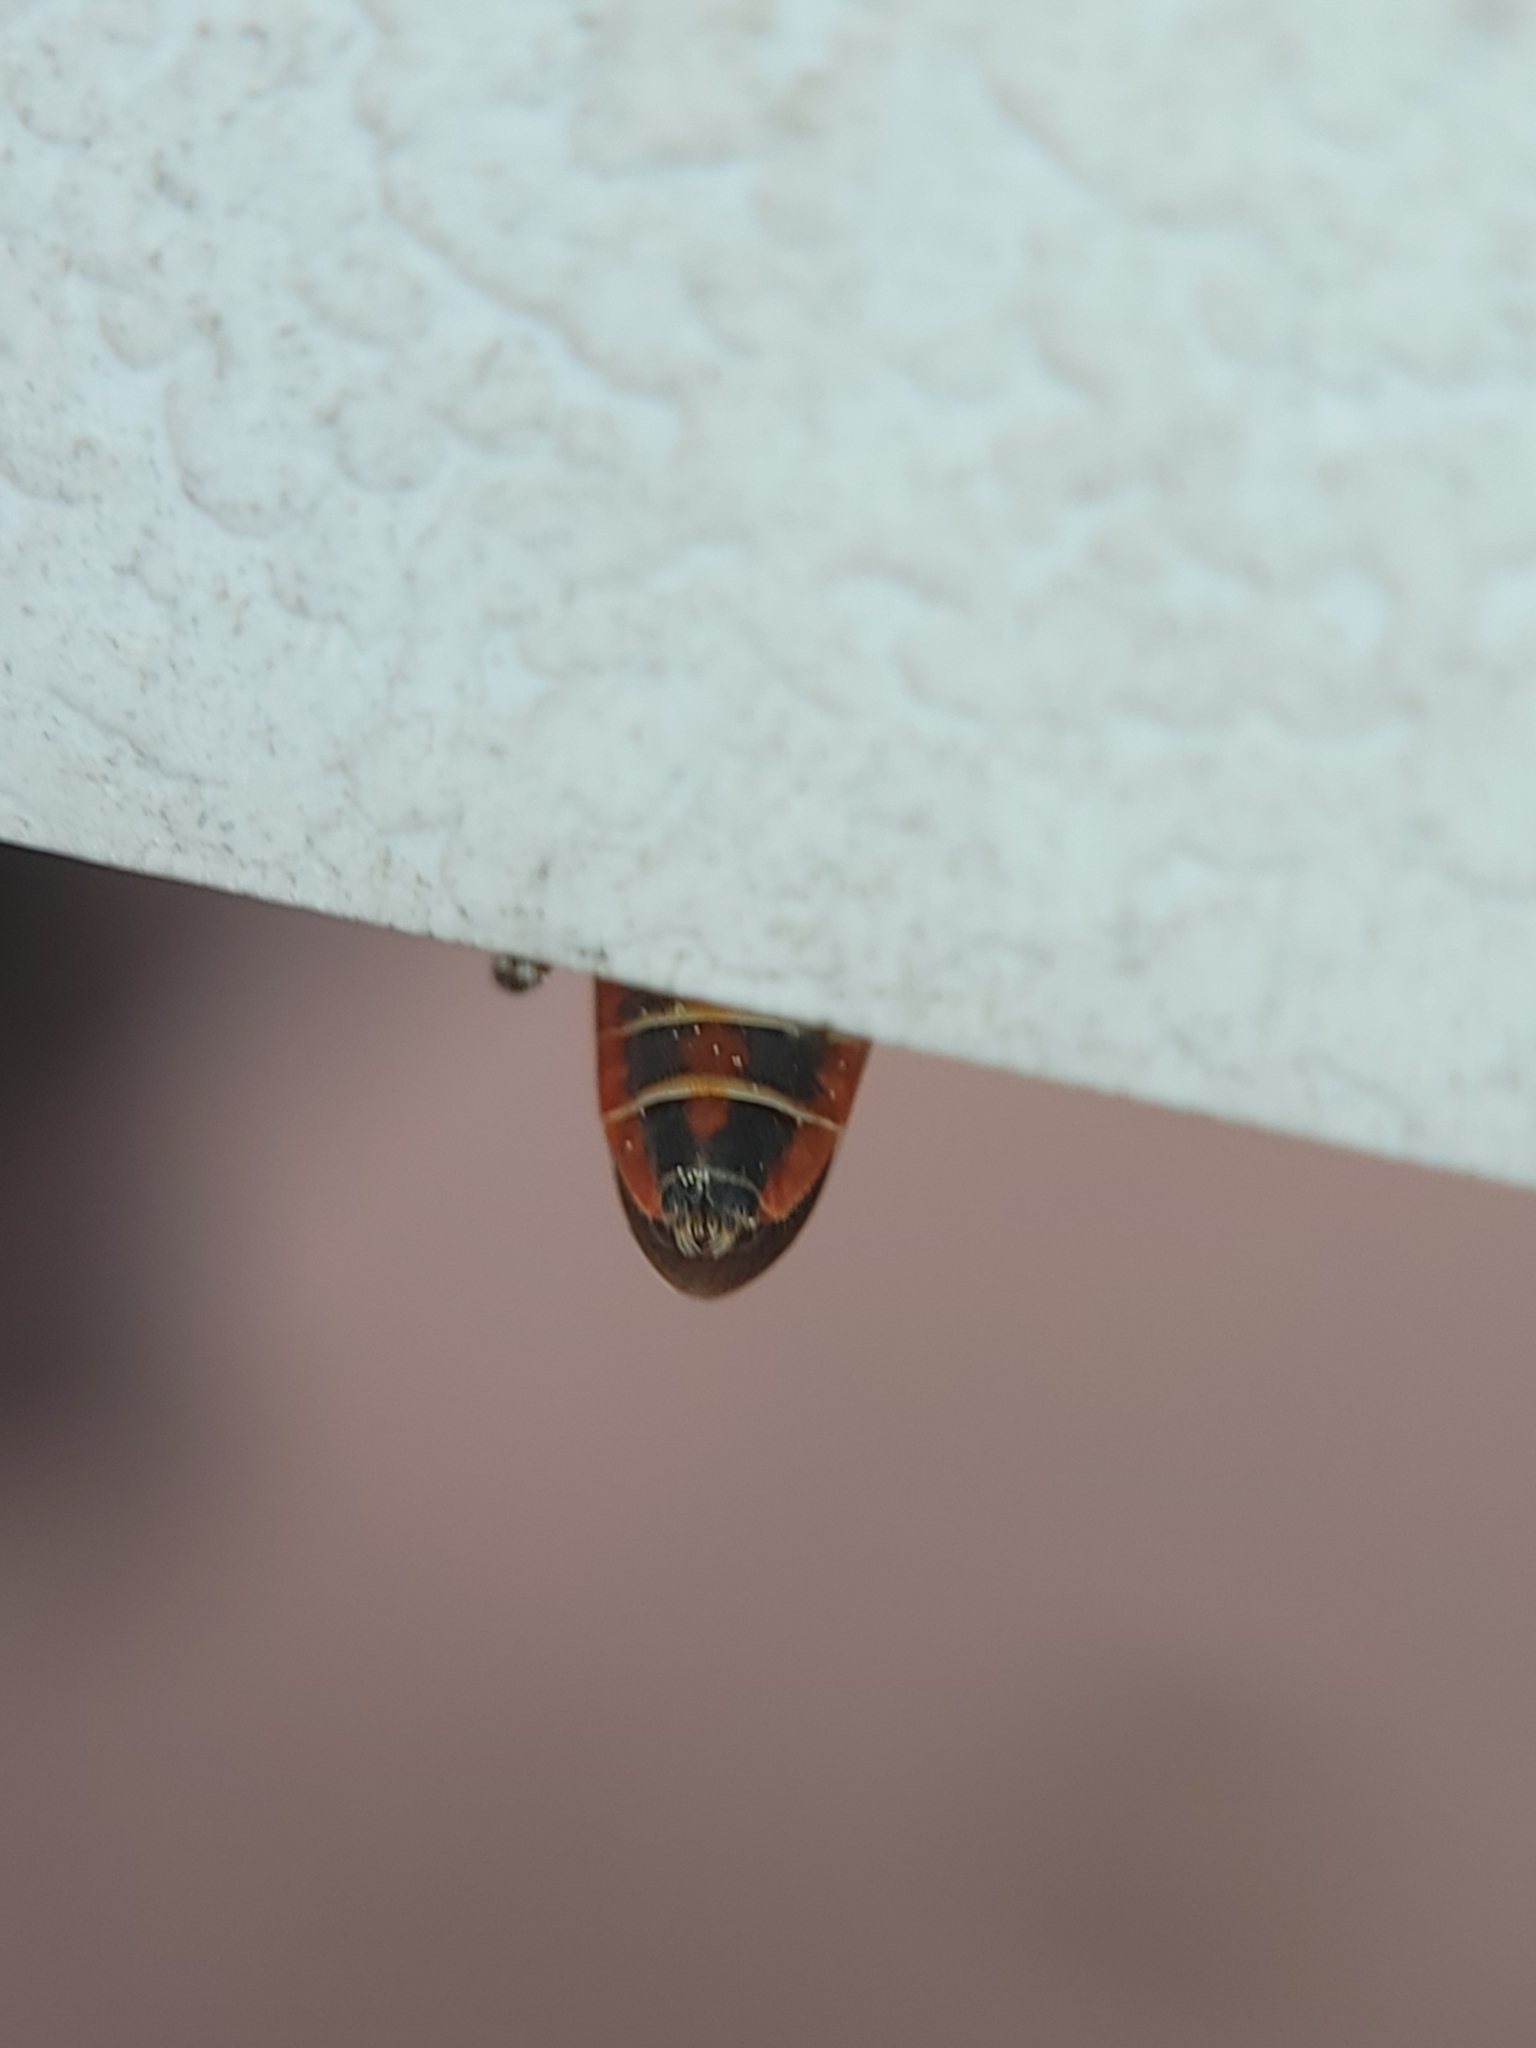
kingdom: Animalia
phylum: Arthropoda
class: Insecta
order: Hemiptera
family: Rhopalidae
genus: Boisea
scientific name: Boisea rubrolineata
